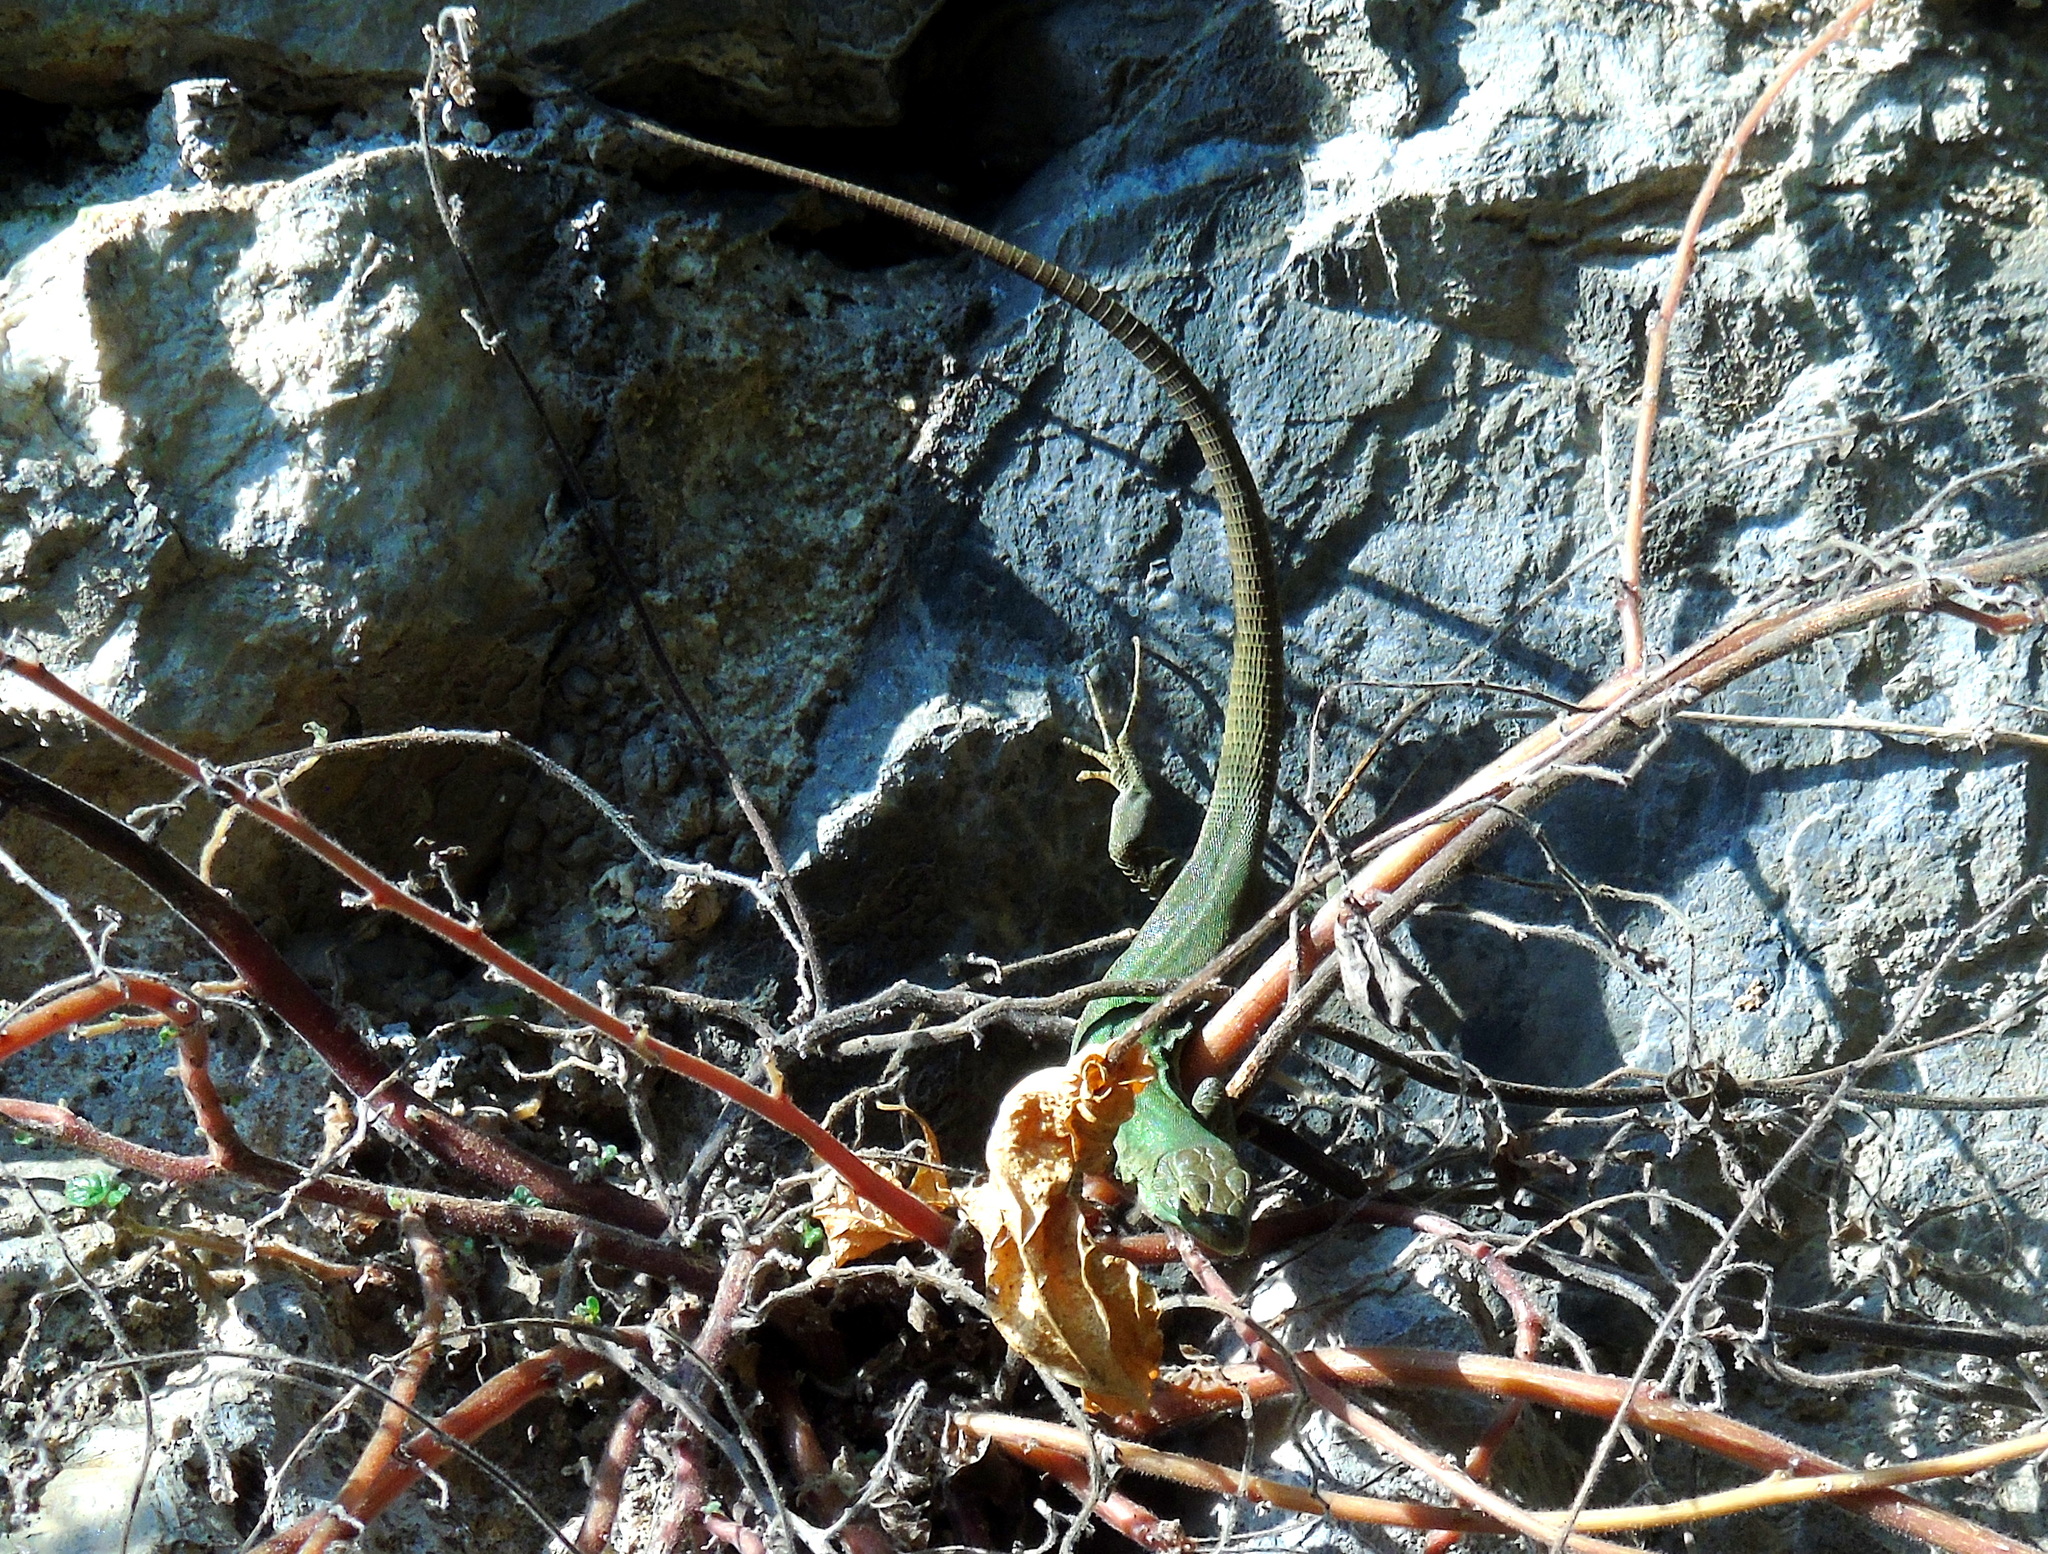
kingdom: Animalia
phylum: Chordata
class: Squamata
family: Lacertidae
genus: Podarcis
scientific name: Podarcis siculus
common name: Italian wall lizard
